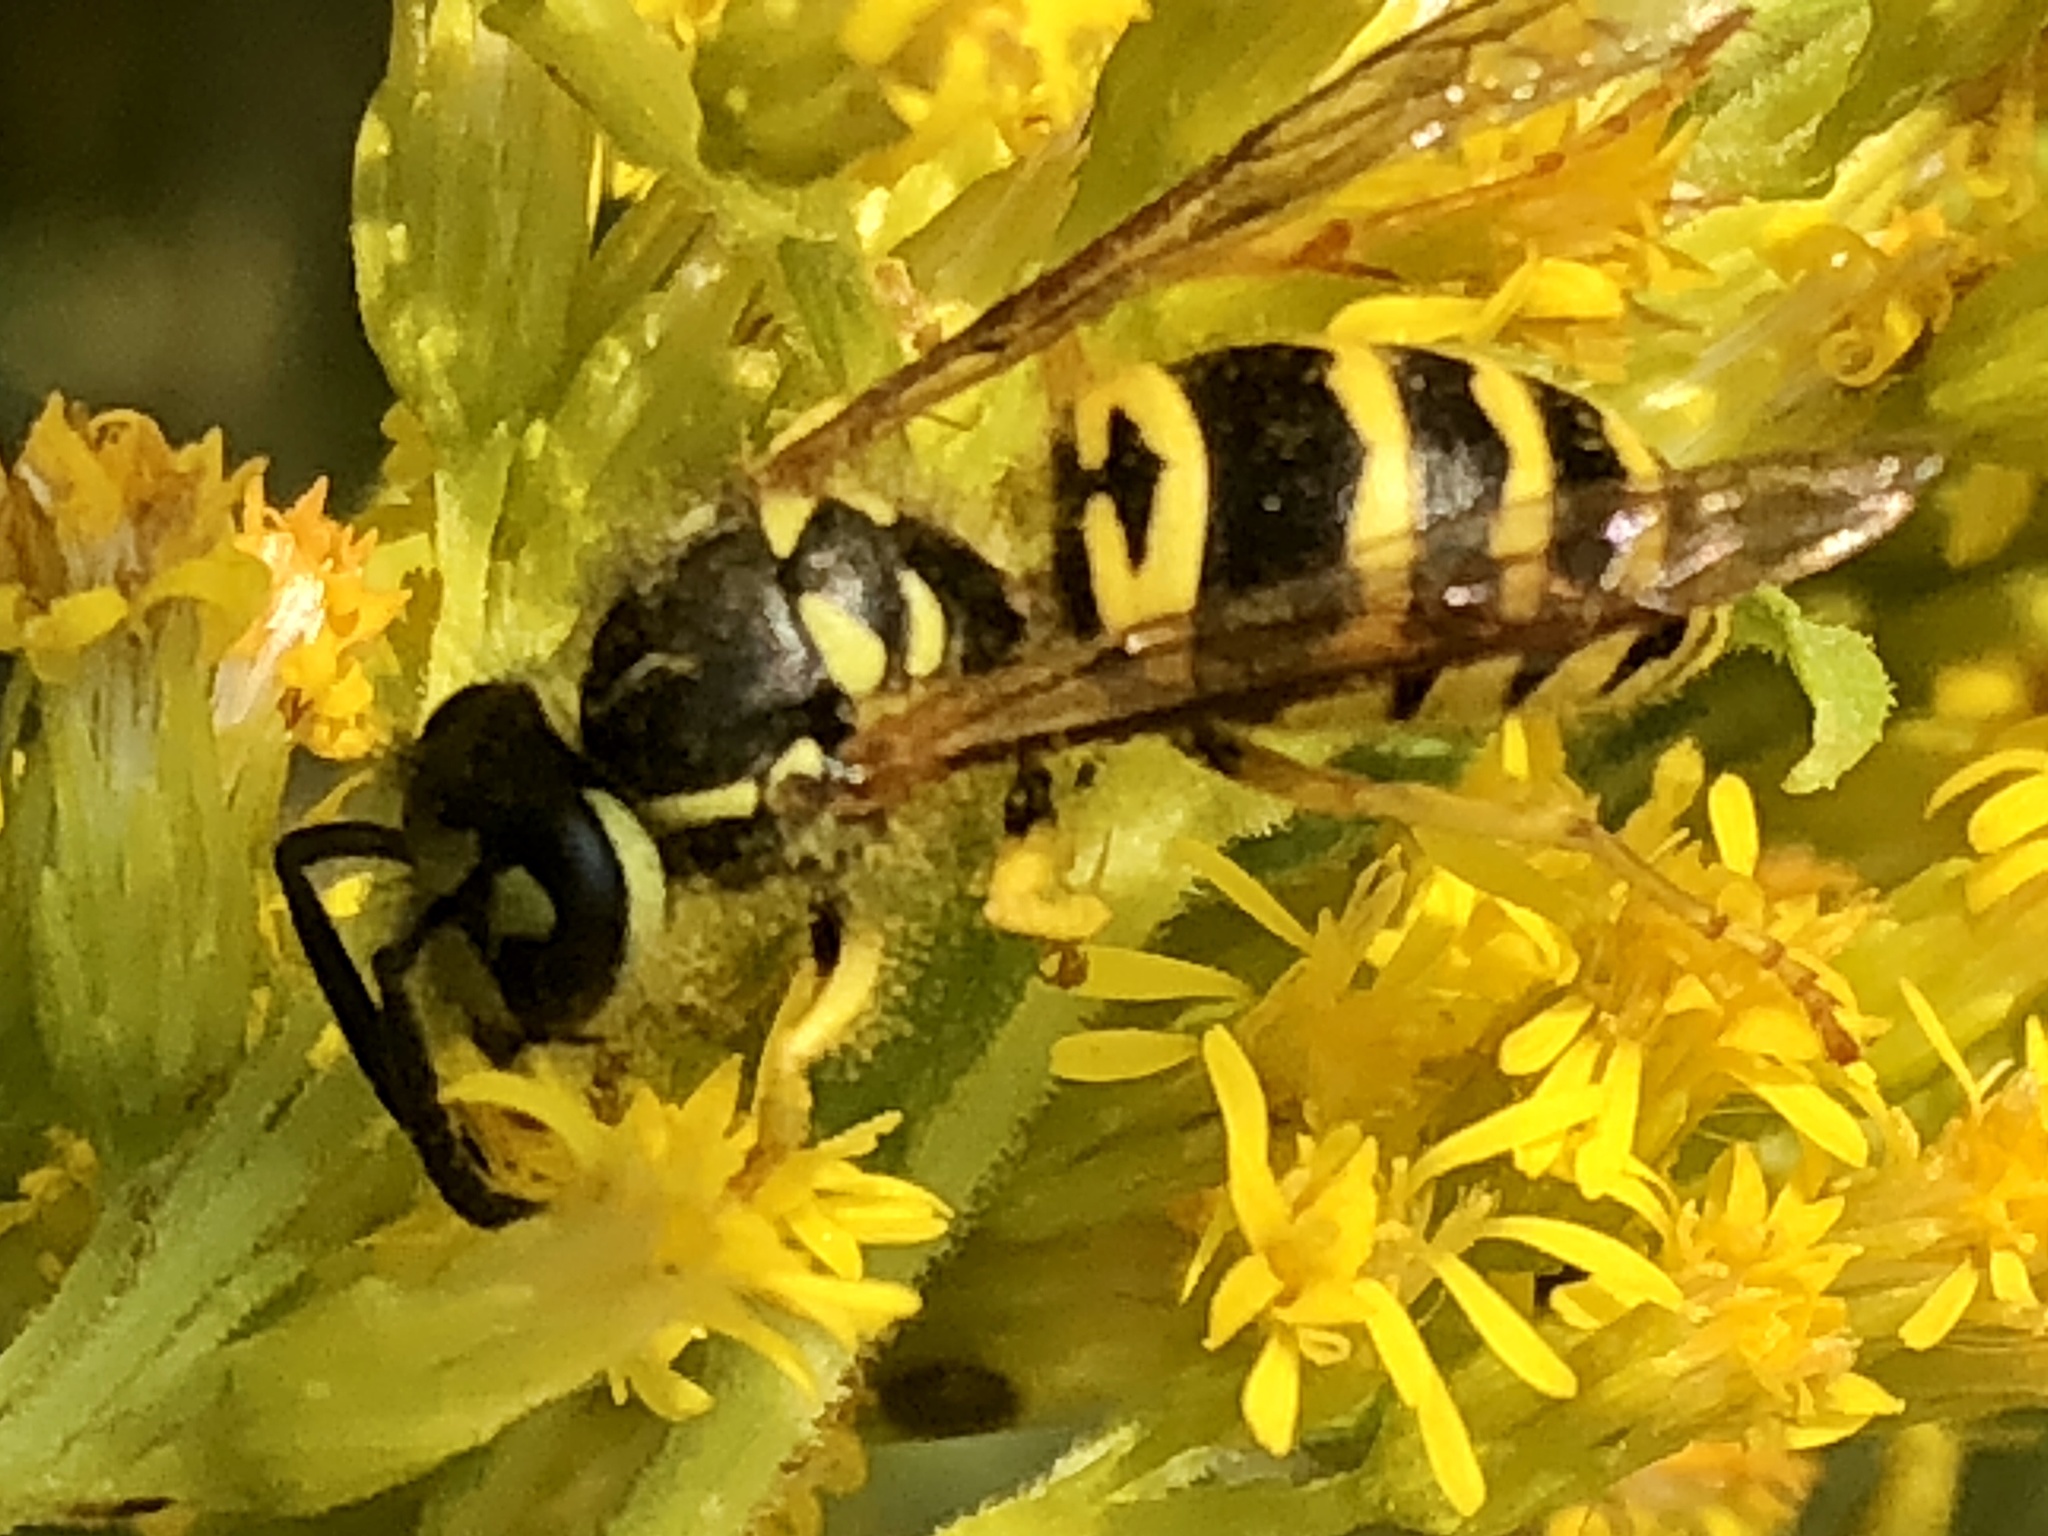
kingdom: Animalia
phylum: Arthropoda
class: Insecta
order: Hymenoptera
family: Vespidae
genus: Vespula
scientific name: Vespula maculifrons
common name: Eastern yellowjacket
